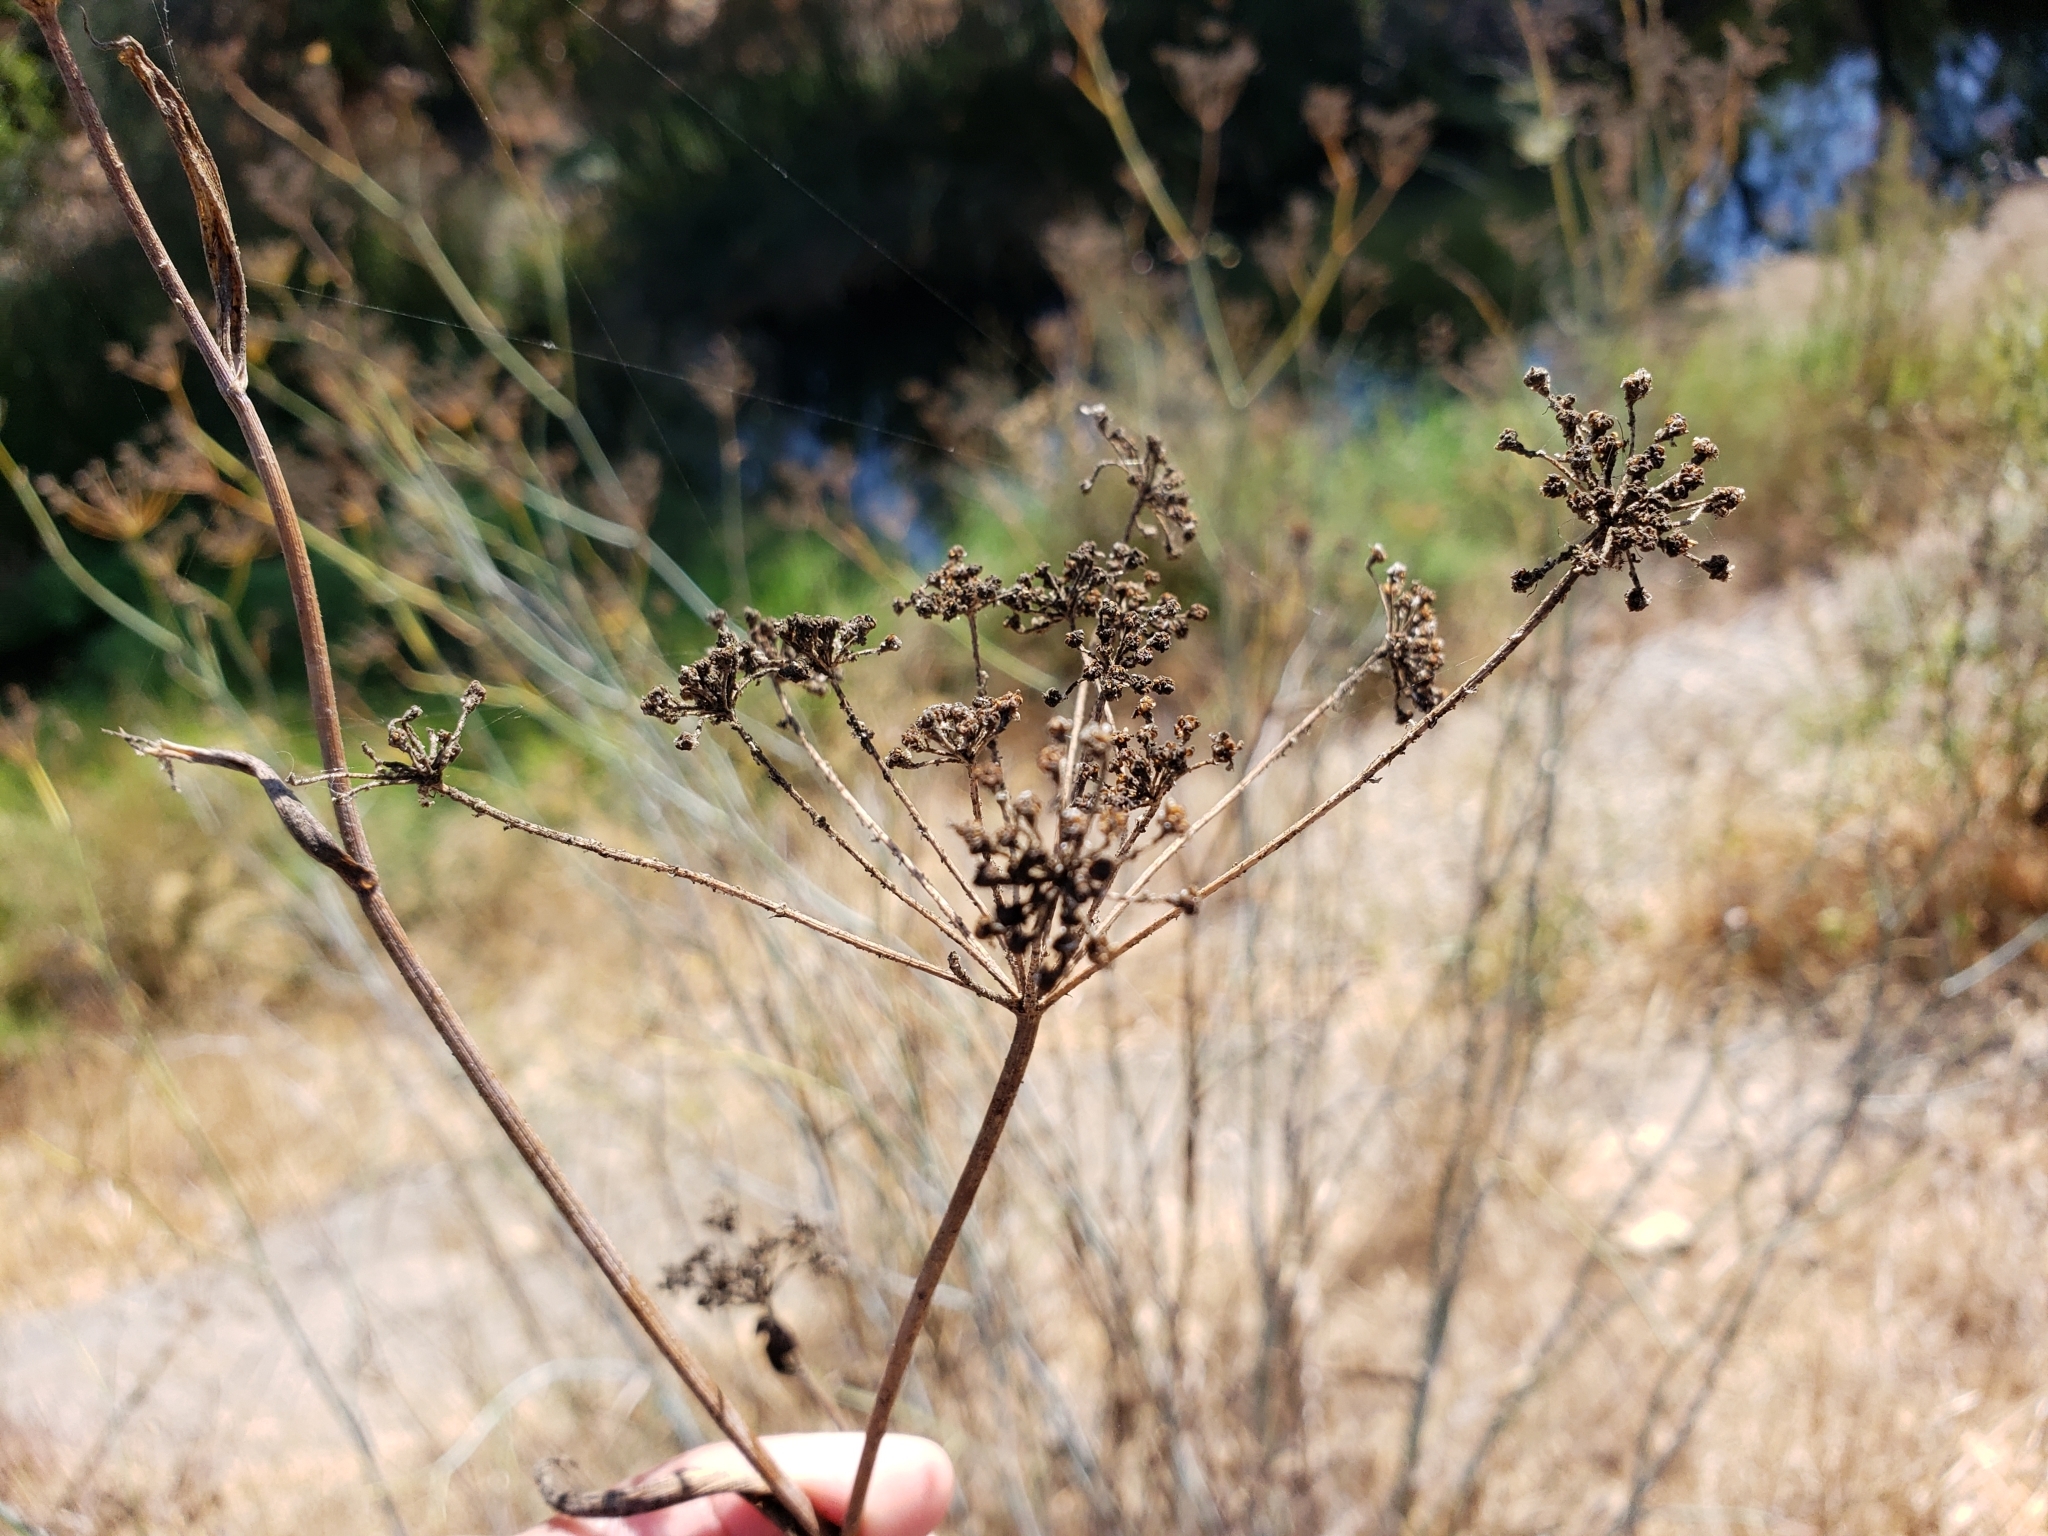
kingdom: Plantae
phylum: Tracheophyta
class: Magnoliopsida
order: Apiales
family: Apiaceae
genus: Foeniculum
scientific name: Foeniculum vulgare
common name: Fennel
